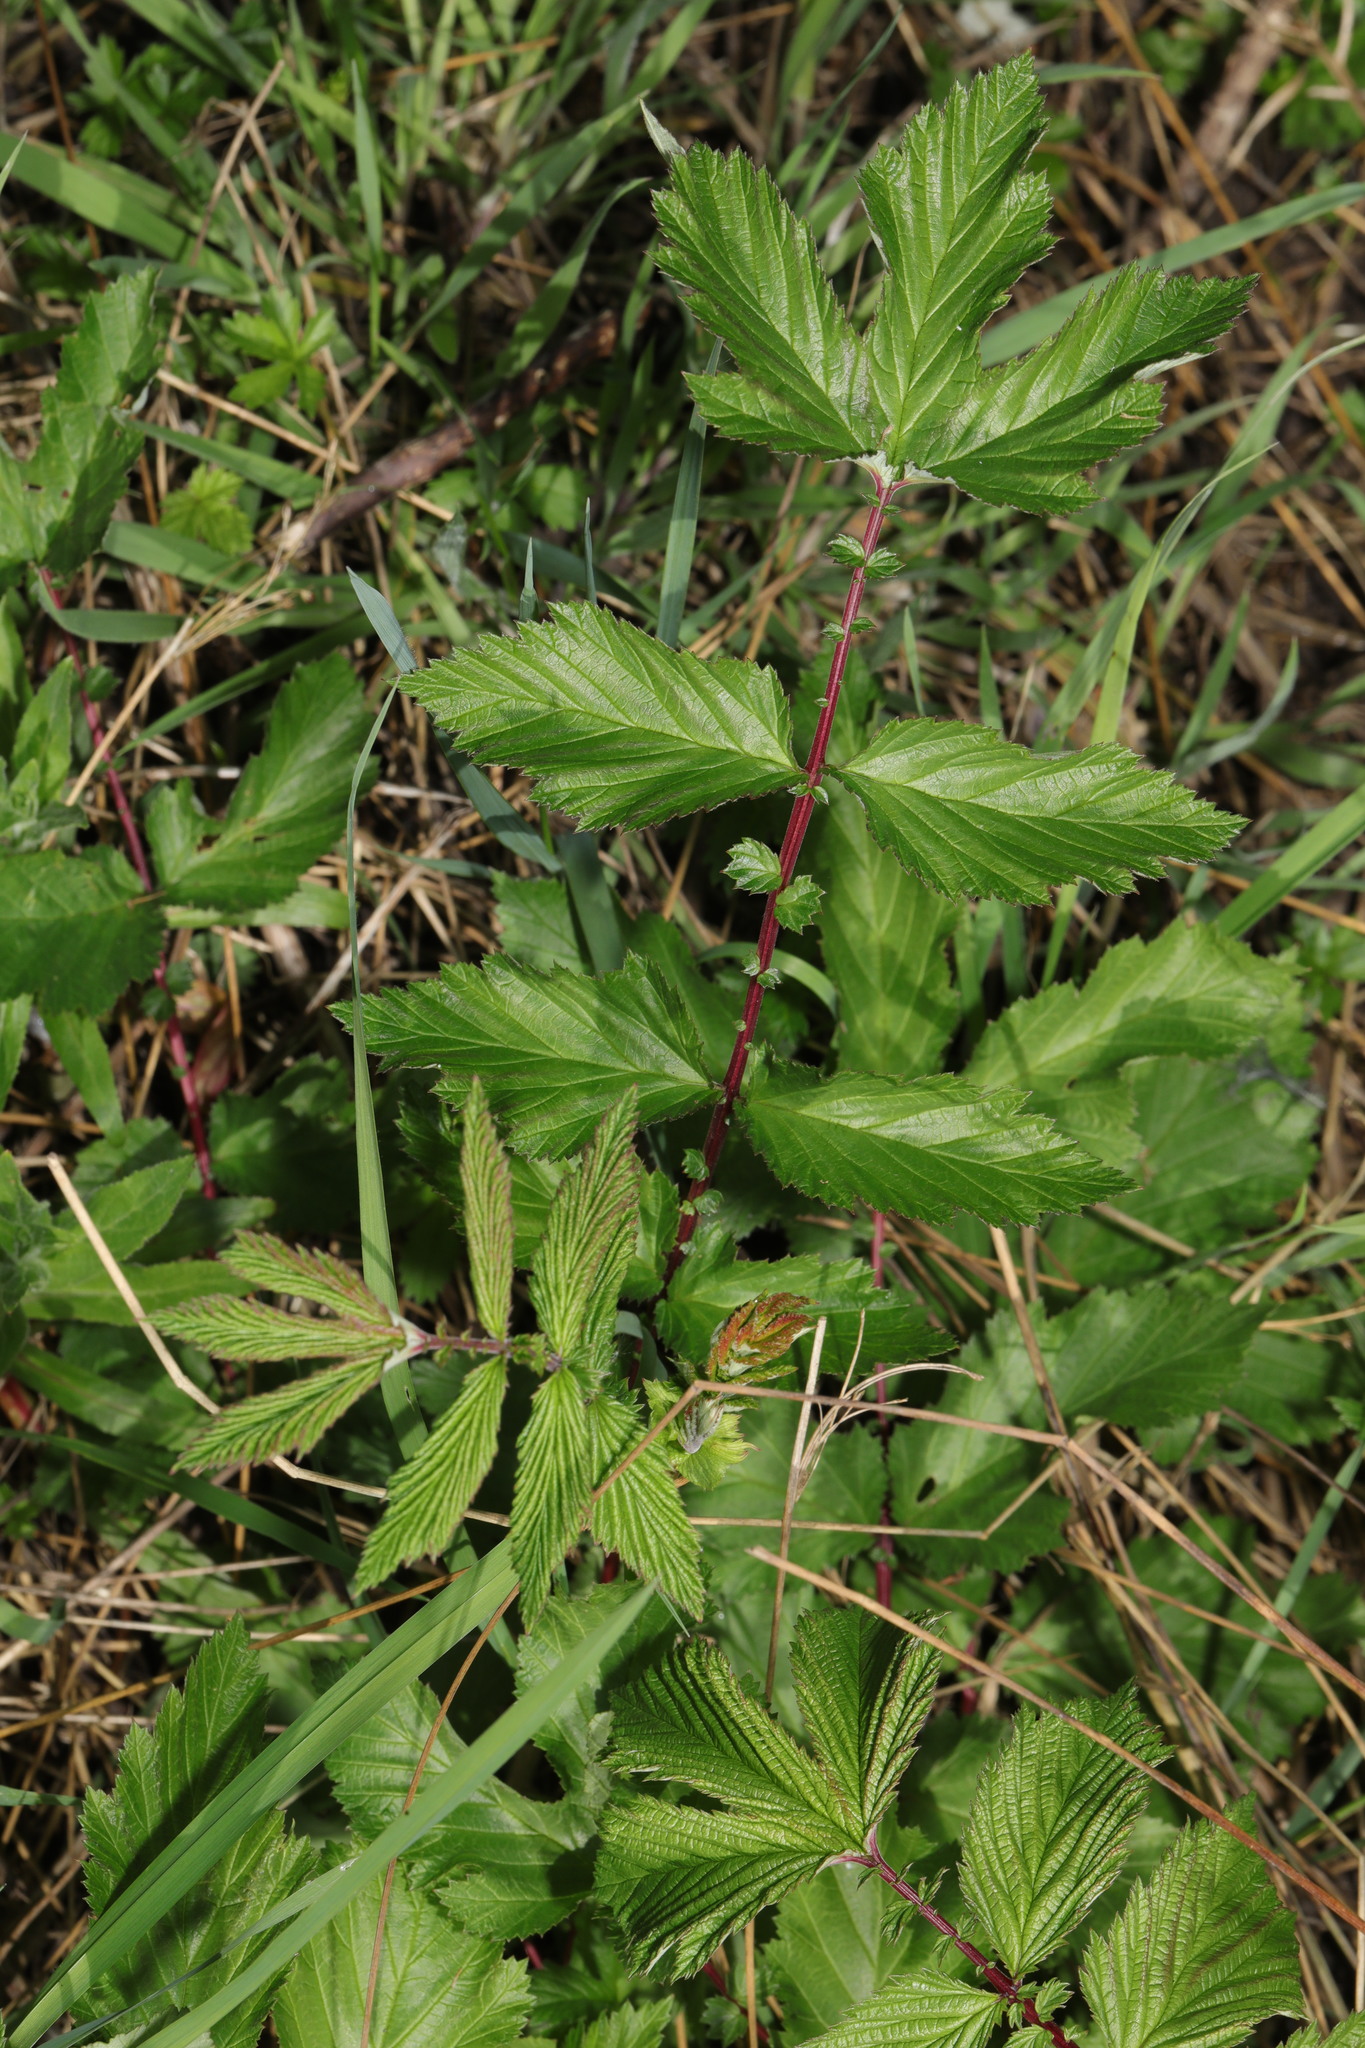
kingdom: Plantae
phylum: Tracheophyta
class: Magnoliopsida
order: Rosales
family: Rosaceae
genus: Filipendula
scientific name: Filipendula ulmaria
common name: Meadowsweet
